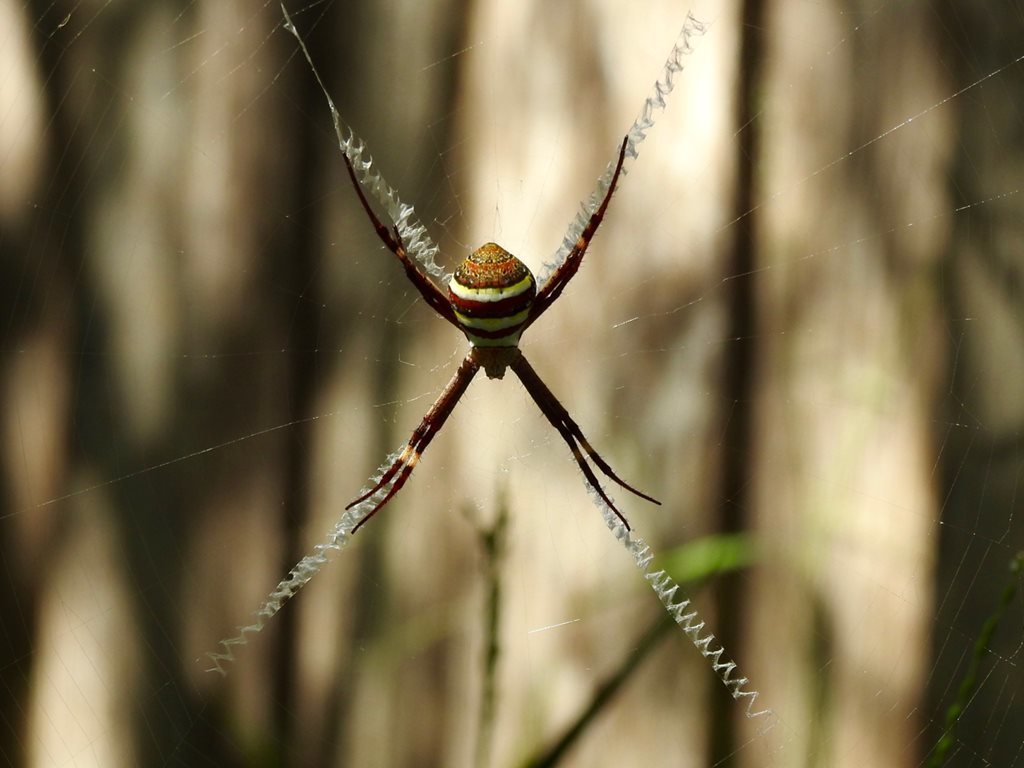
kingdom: Animalia
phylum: Arthropoda
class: Arachnida
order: Araneae
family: Araneidae
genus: Argiope
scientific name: Argiope keyserlingi
